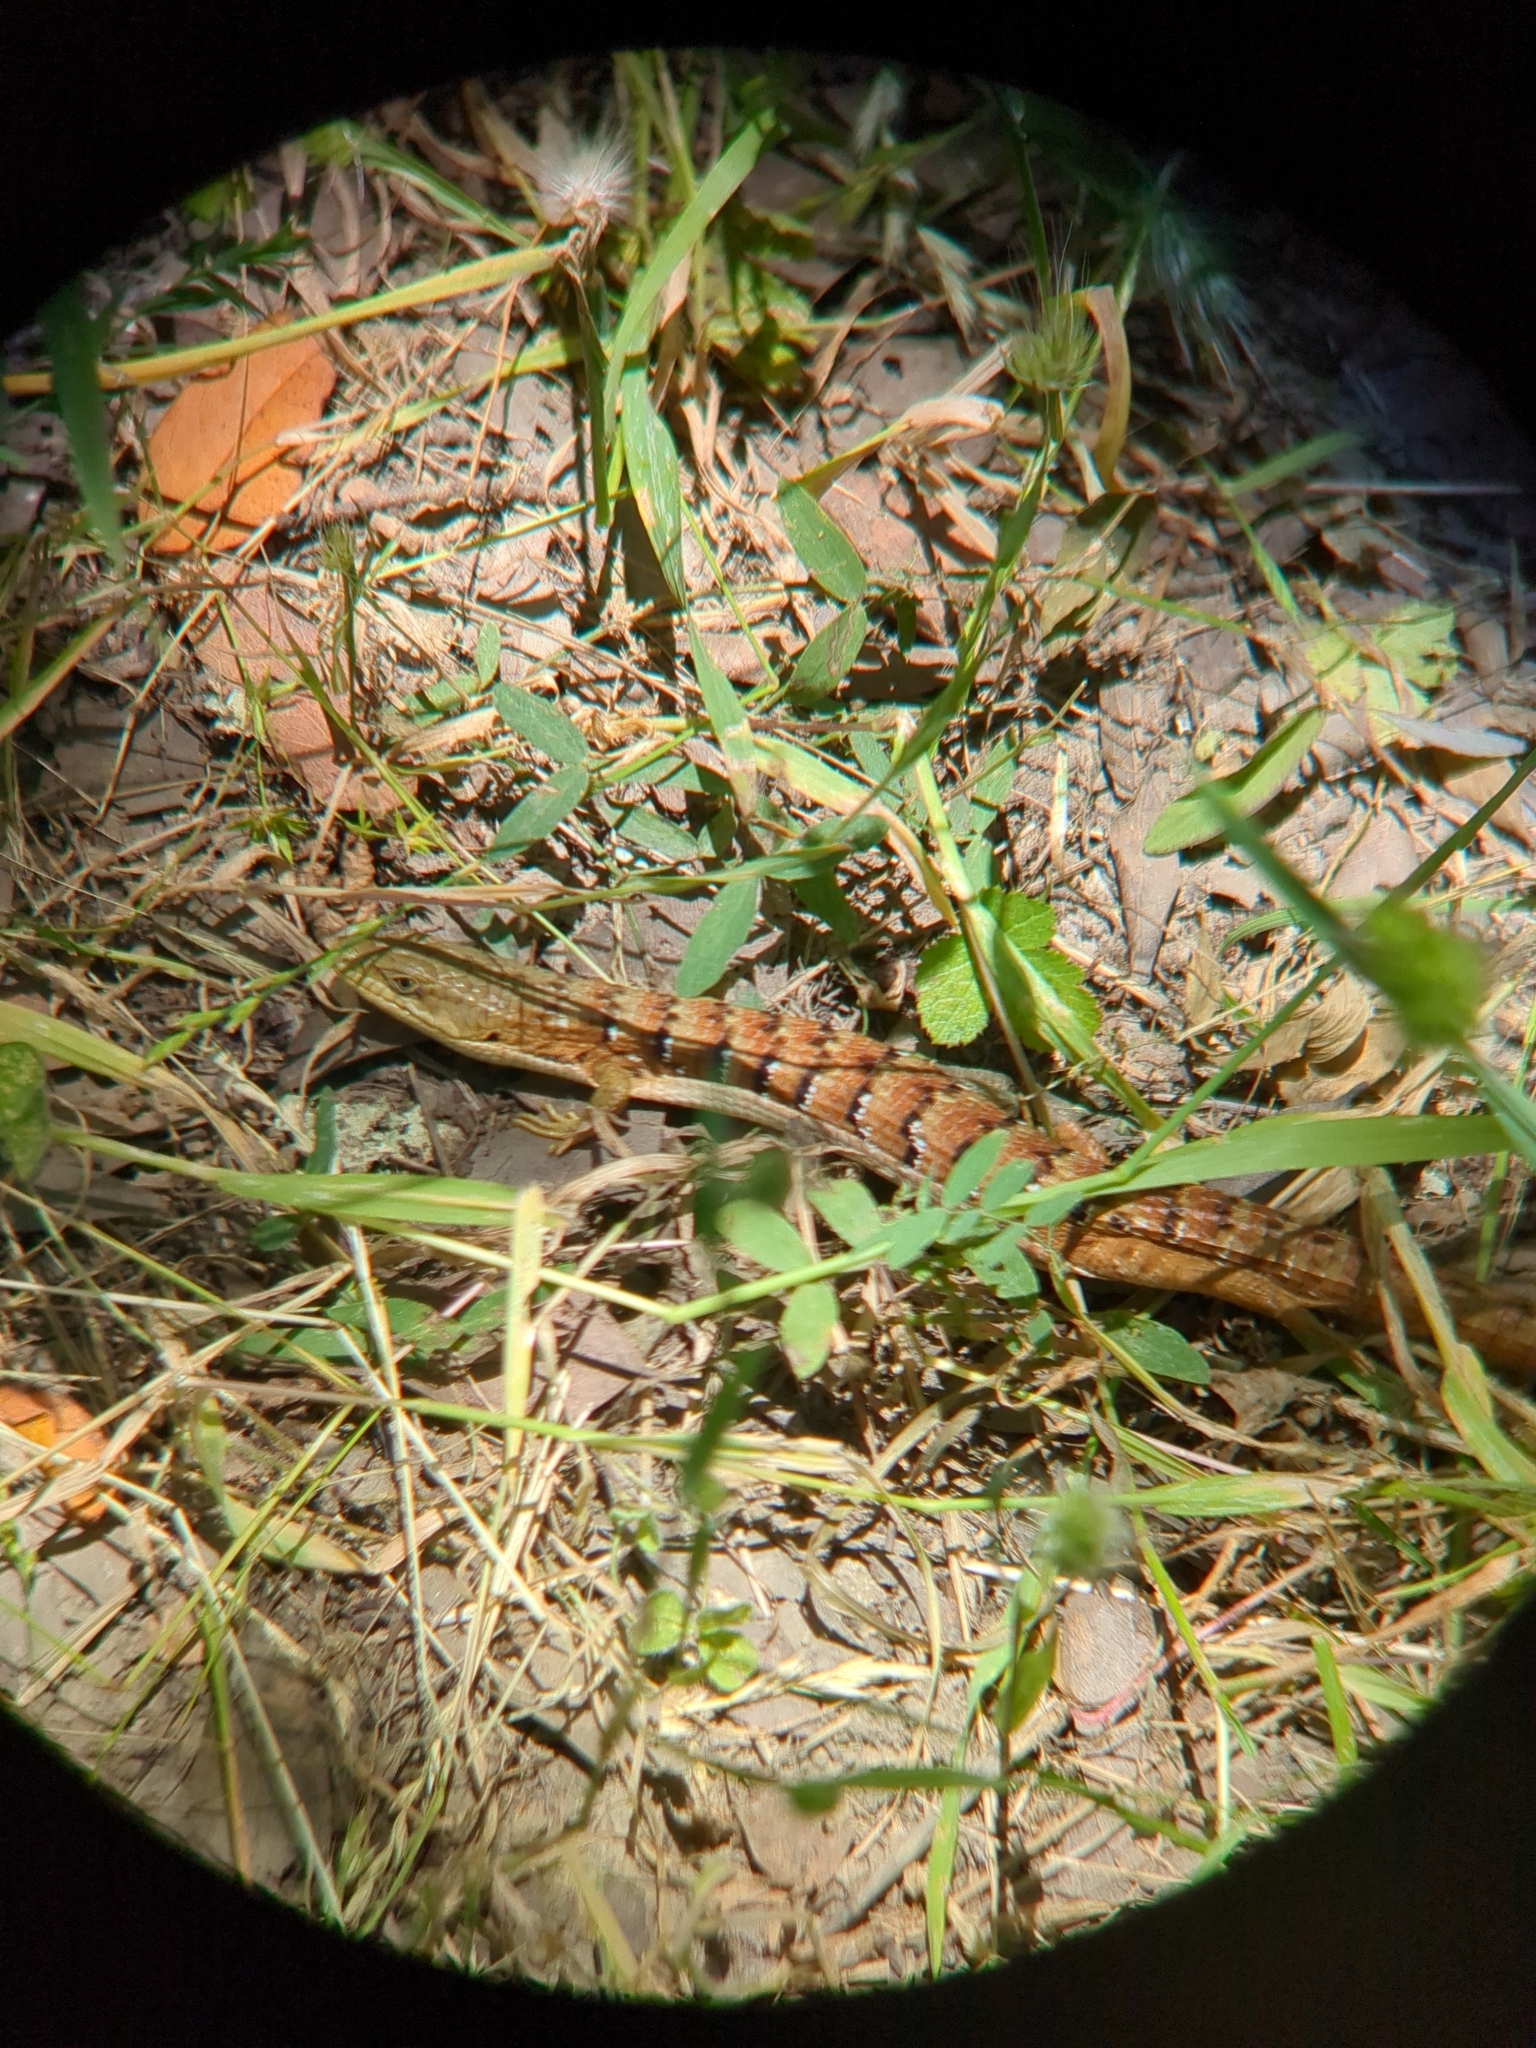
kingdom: Animalia
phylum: Chordata
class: Squamata
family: Anguidae
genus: Elgaria
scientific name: Elgaria multicarinata
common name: Southern alligator lizard
